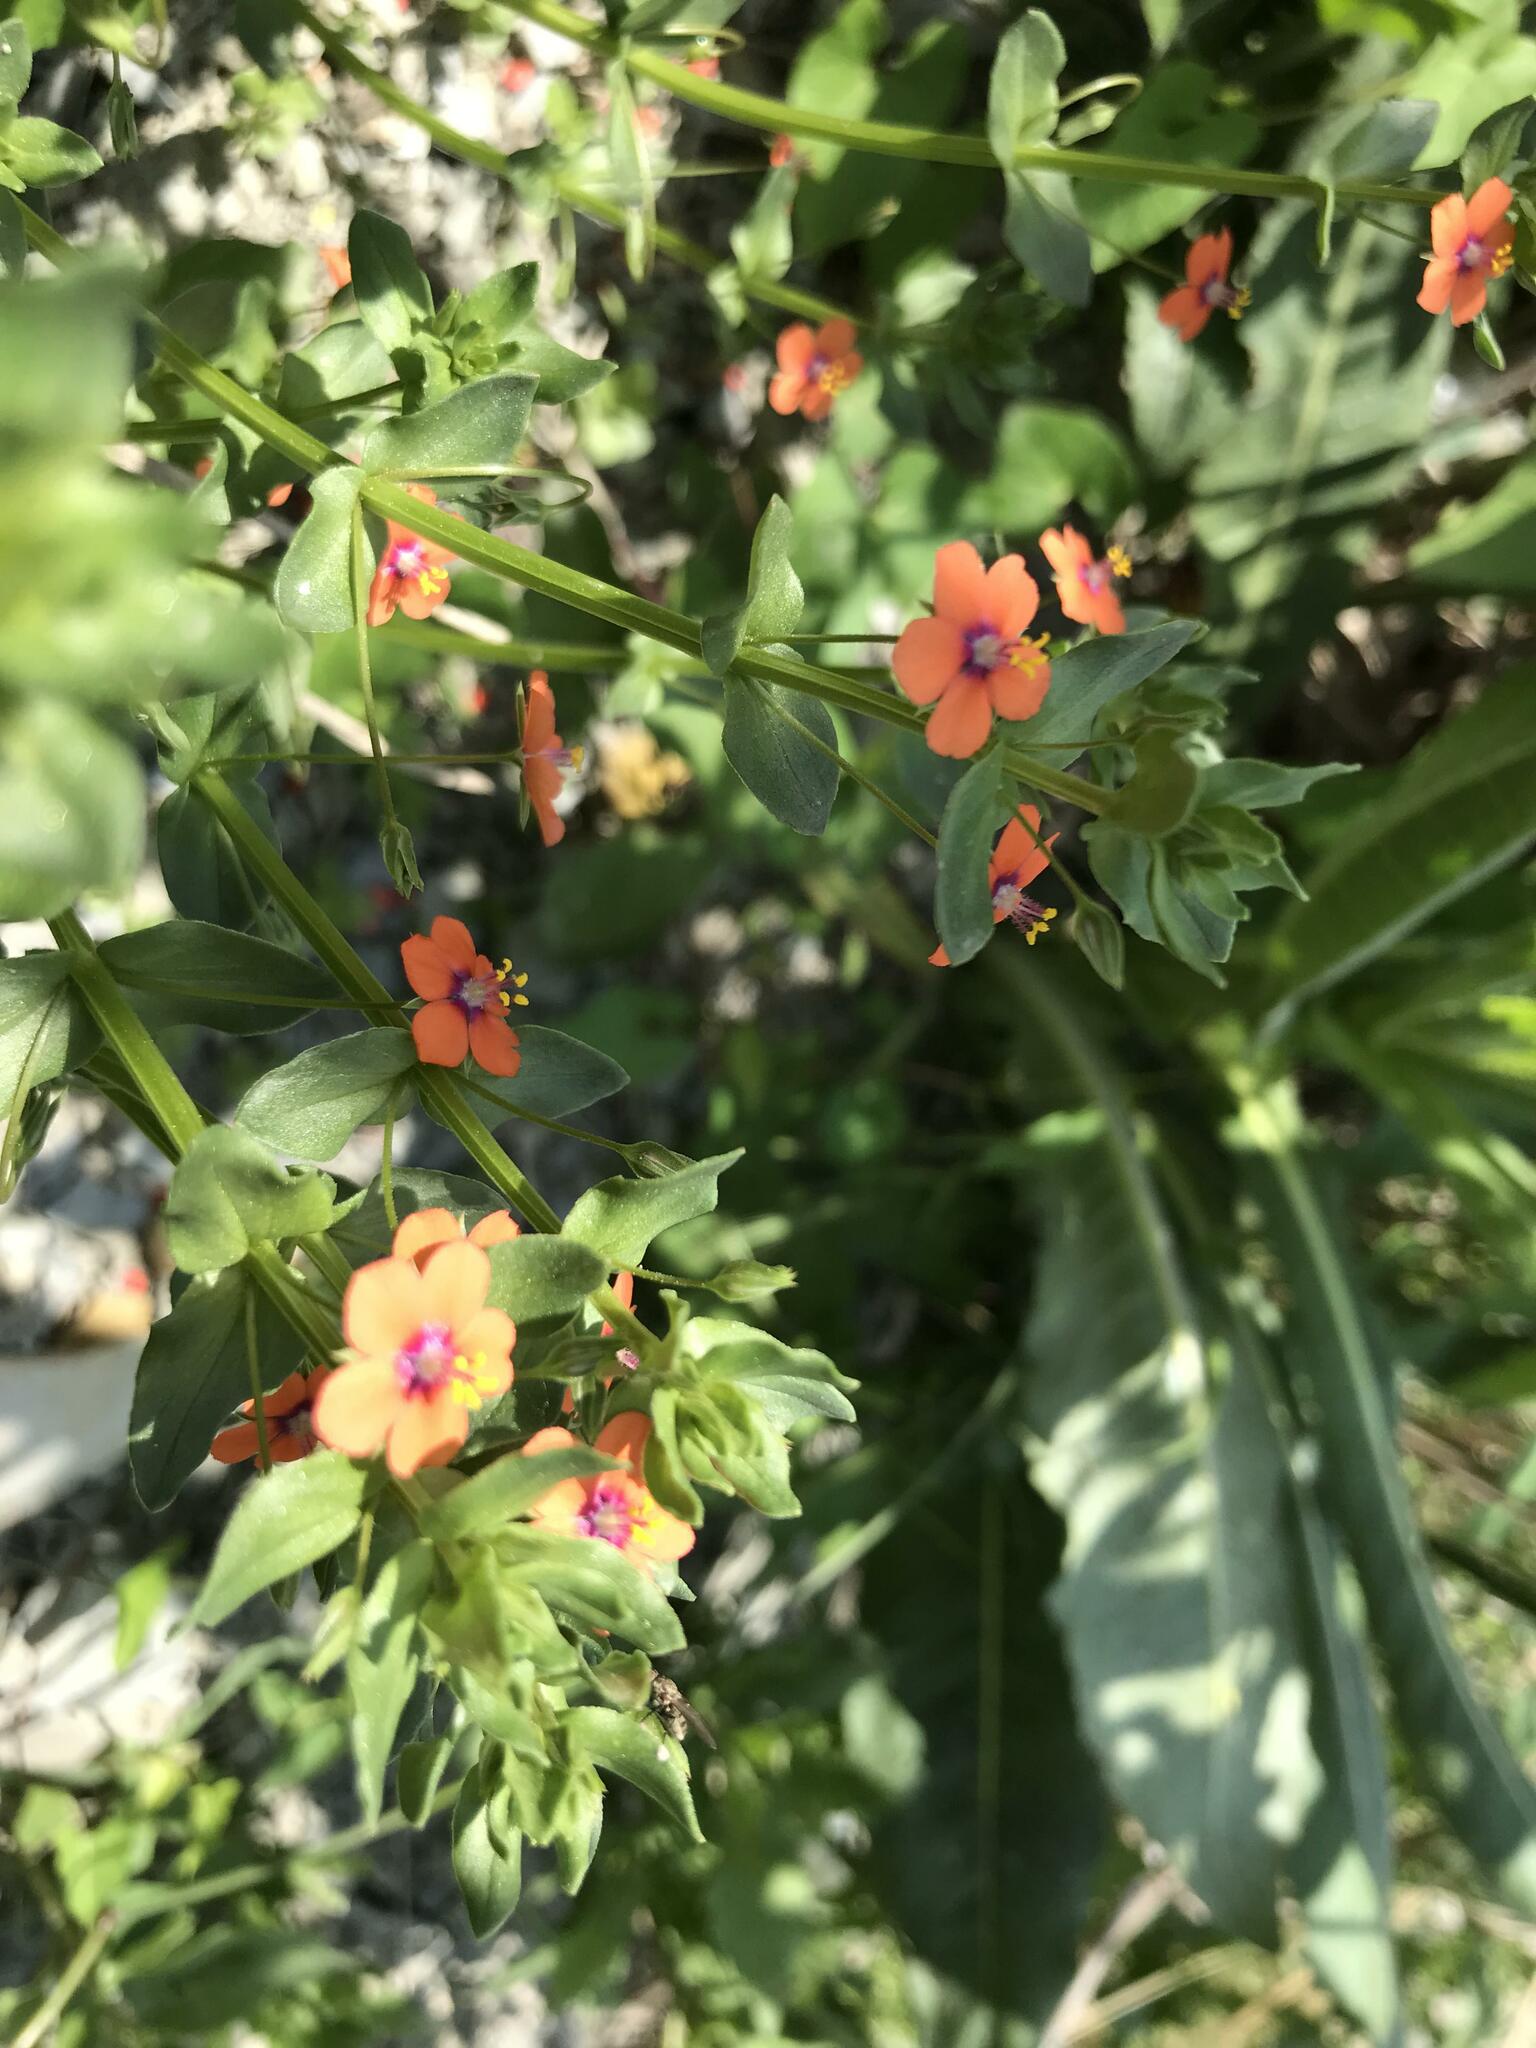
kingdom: Plantae
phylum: Tracheophyta
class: Magnoliopsida
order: Ericales
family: Primulaceae
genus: Lysimachia
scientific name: Lysimachia arvensis
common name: Scarlet pimpernel
